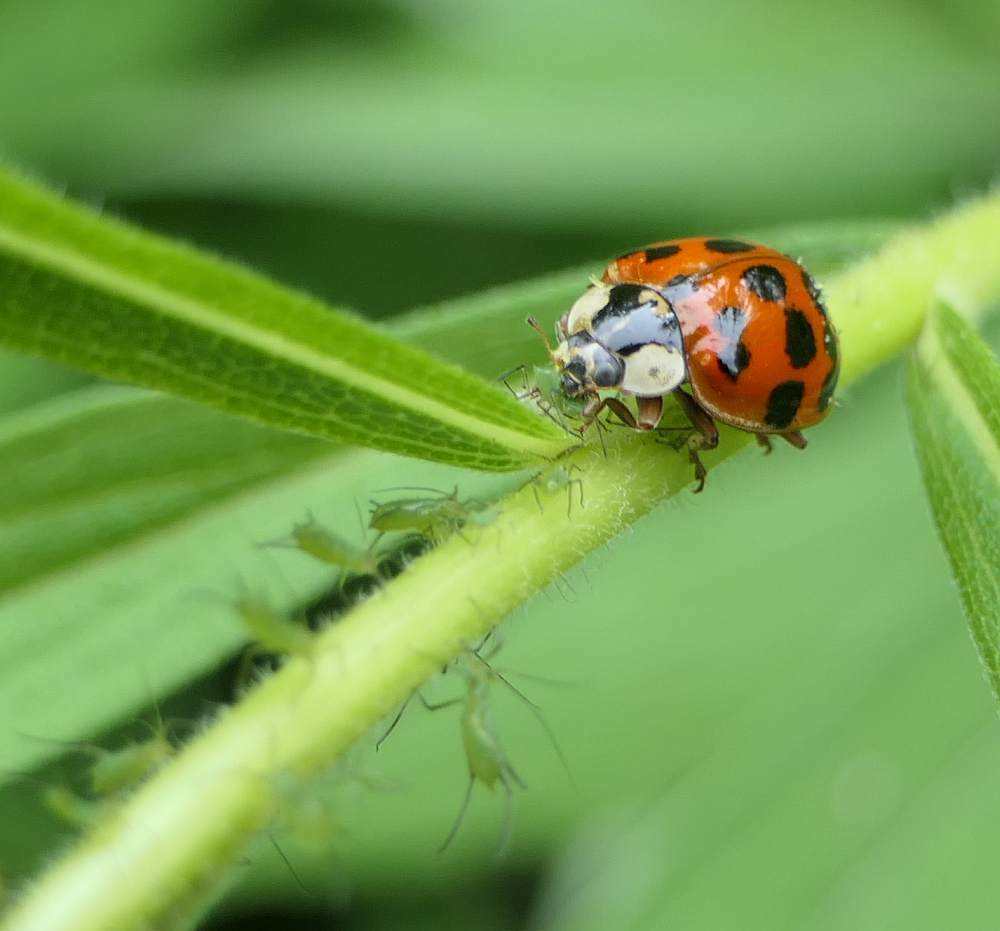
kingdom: Animalia
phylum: Arthropoda
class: Insecta
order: Coleoptera
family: Coccinellidae
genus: Harmonia
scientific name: Harmonia axyridis
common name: Harlequin ladybird
